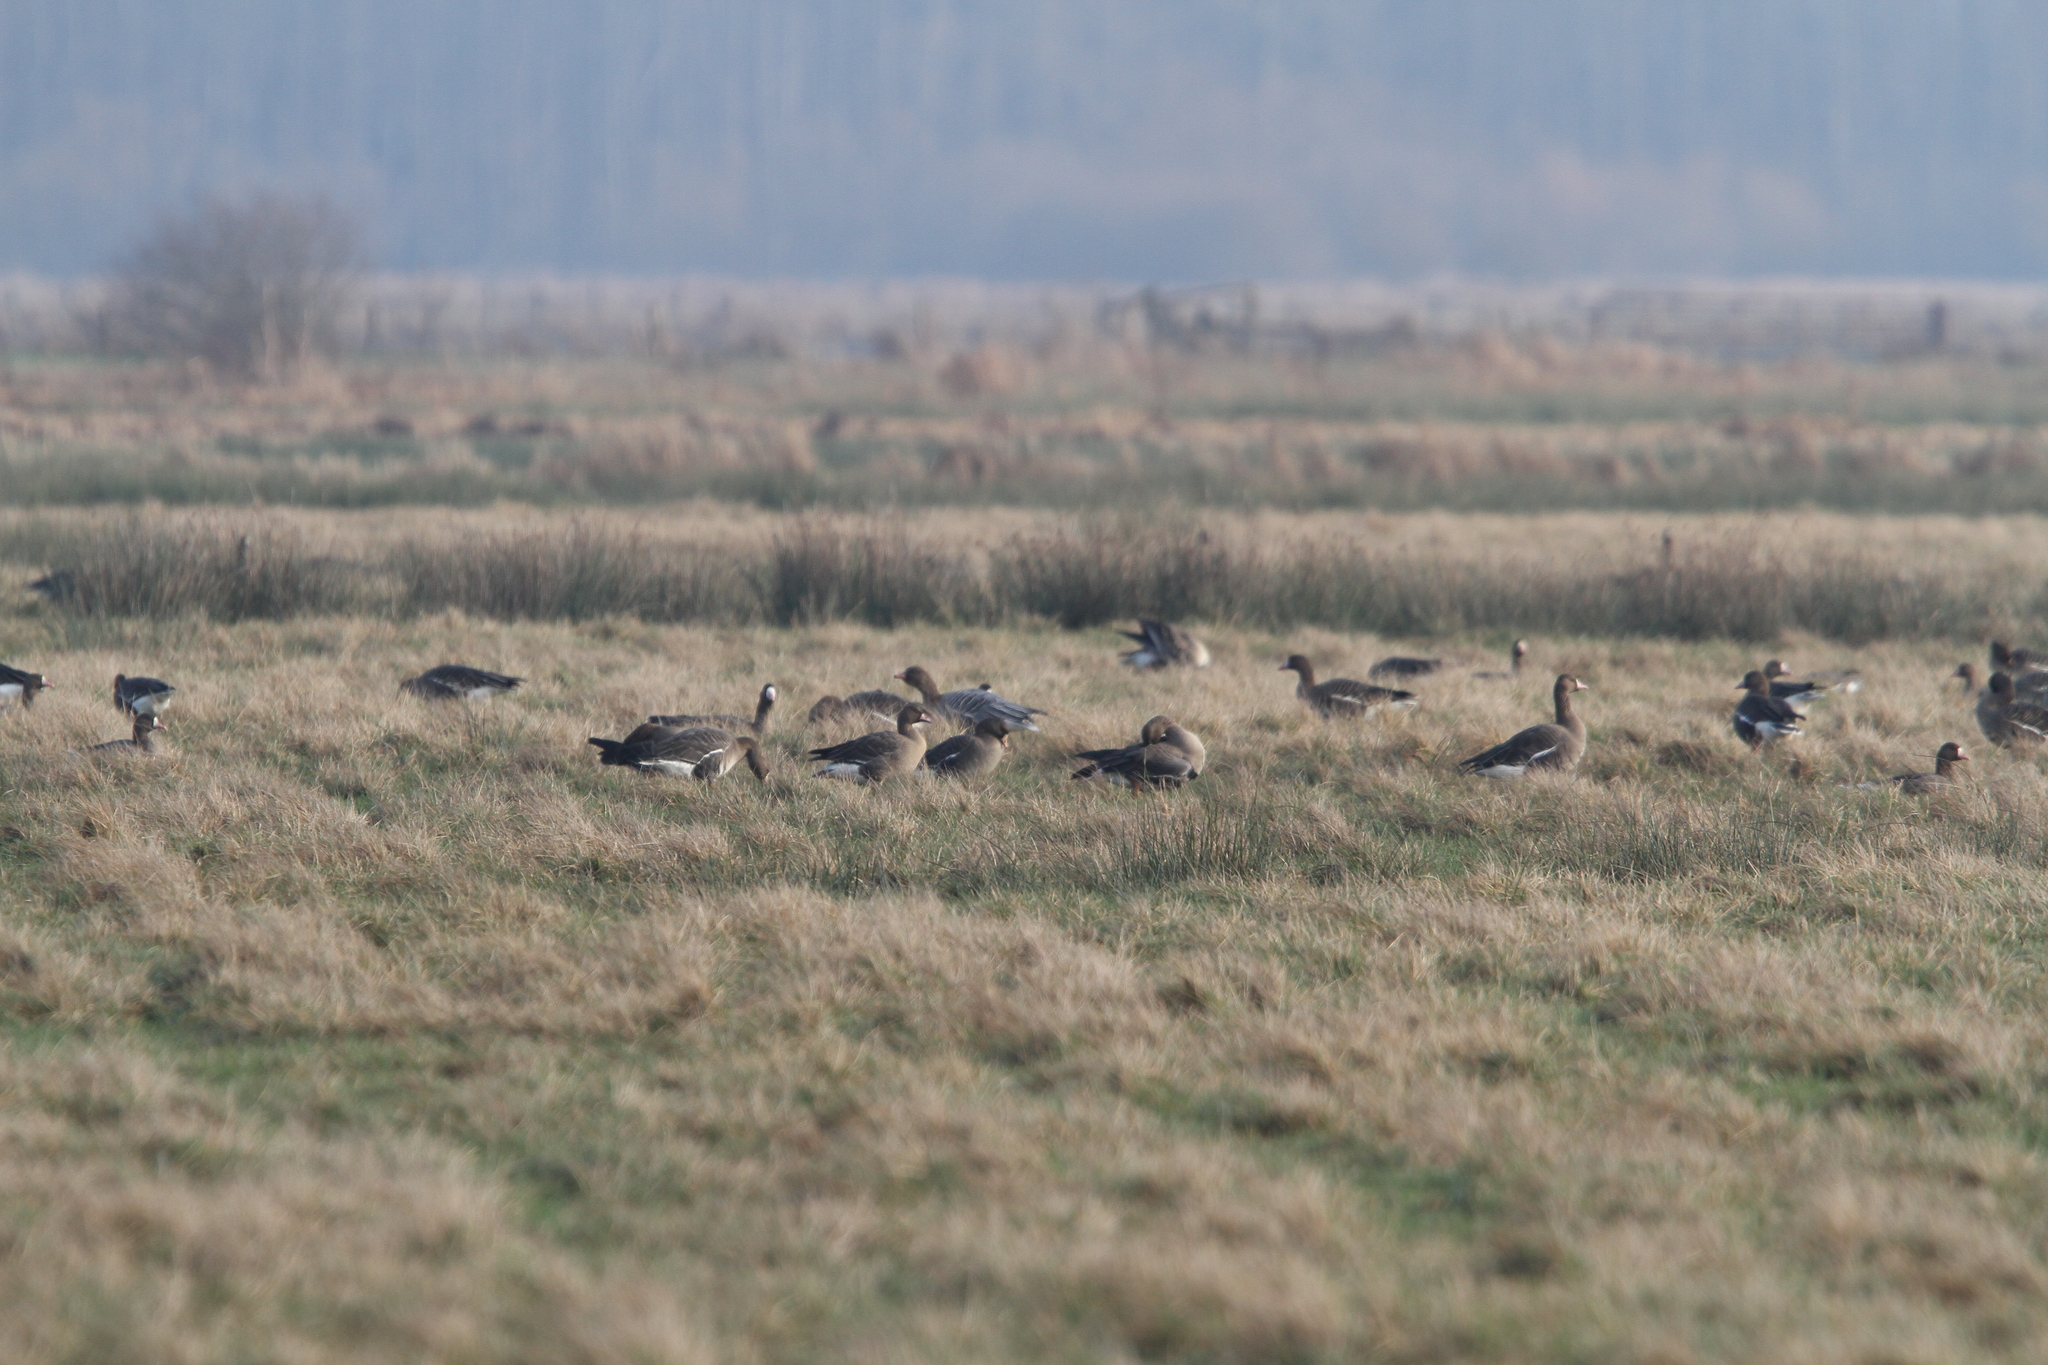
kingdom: Animalia
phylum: Chordata
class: Aves
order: Anseriformes
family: Anatidae
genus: Anser
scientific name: Anser brachyrhynchus
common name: Pink-footed goose
